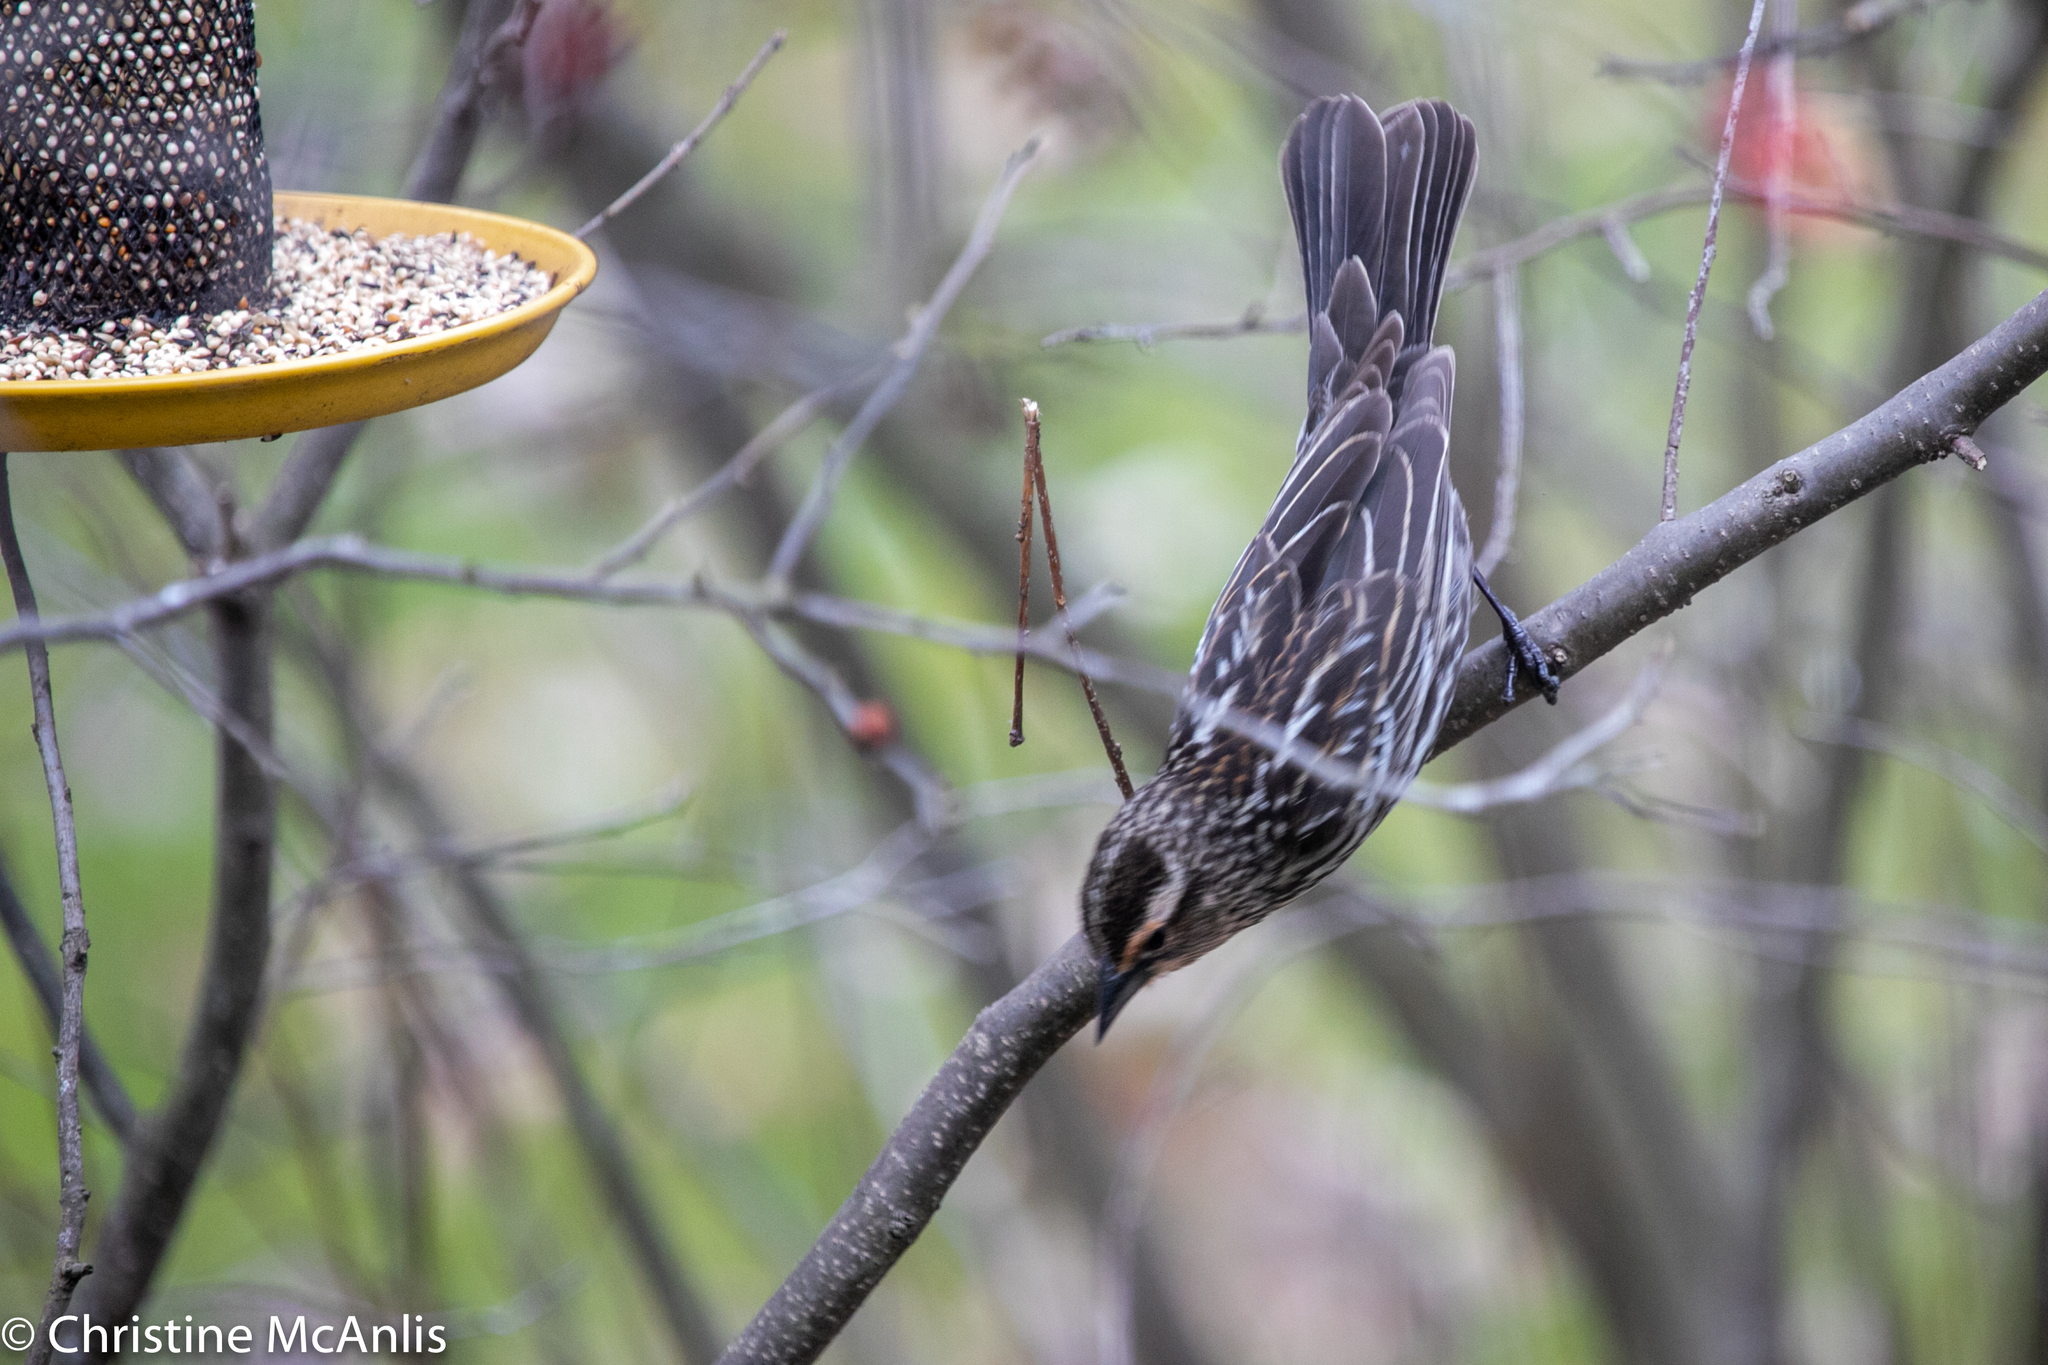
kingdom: Animalia
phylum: Chordata
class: Aves
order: Passeriformes
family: Icteridae
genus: Agelaius
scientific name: Agelaius phoeniceus
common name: Red-winged blackbird
